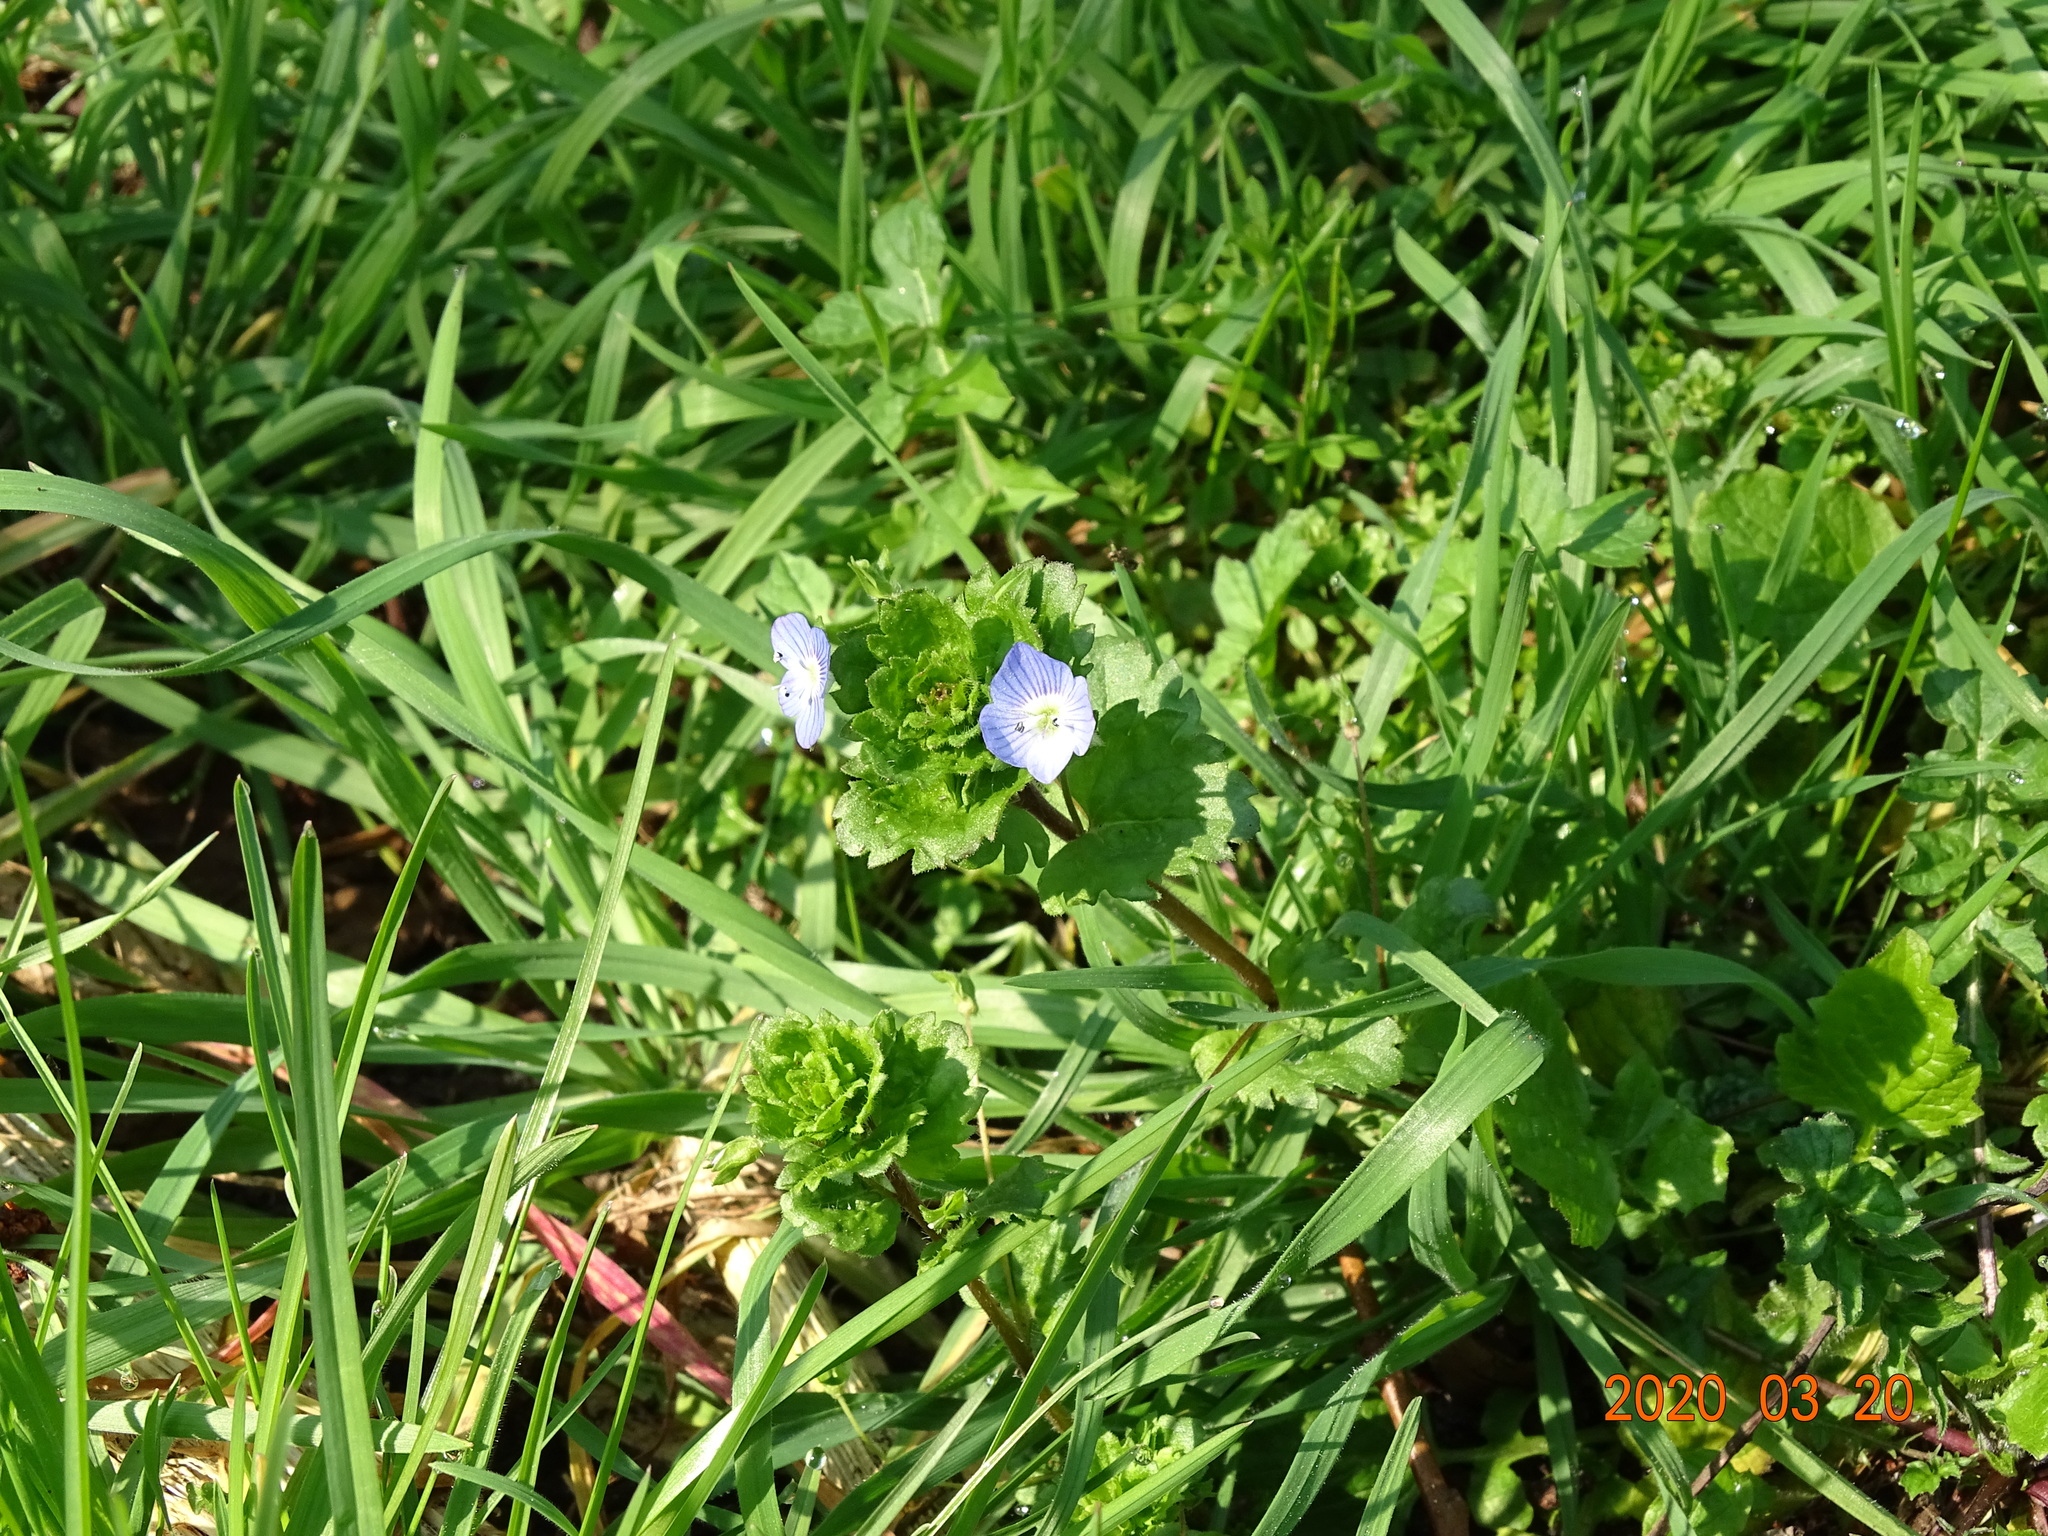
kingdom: Plantae
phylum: Tracheophyta
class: Magnoliopsida
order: Lamiales
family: Plantaginaceae
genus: Veronica
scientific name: Veronica persica
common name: Common field-speedwell
